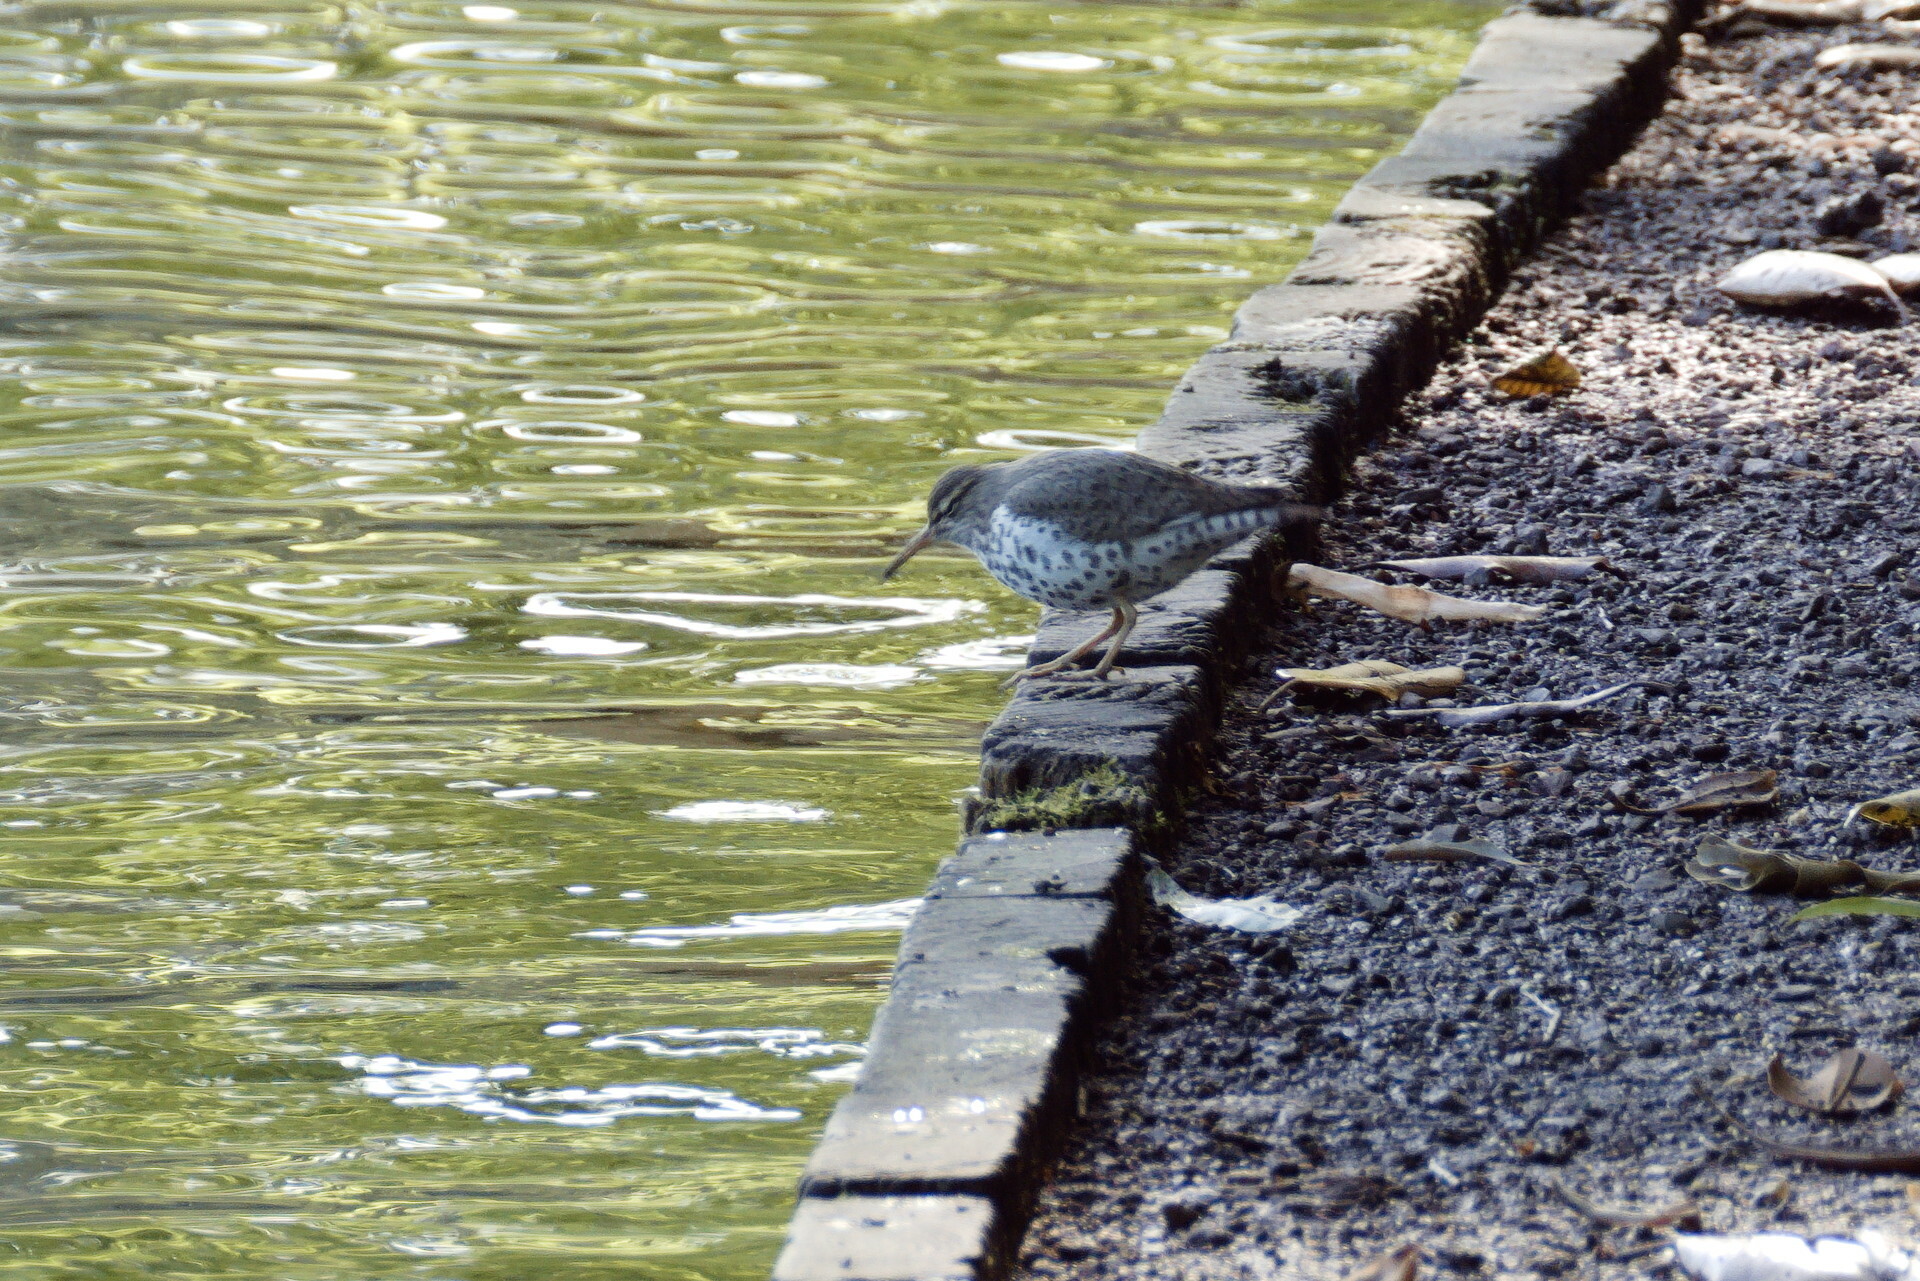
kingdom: Animalia
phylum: Chordata
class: Aves
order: Charadriiformes
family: Scolopacidae
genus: Actitis
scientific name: Actitis macularius
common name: Spotted sandpiper
